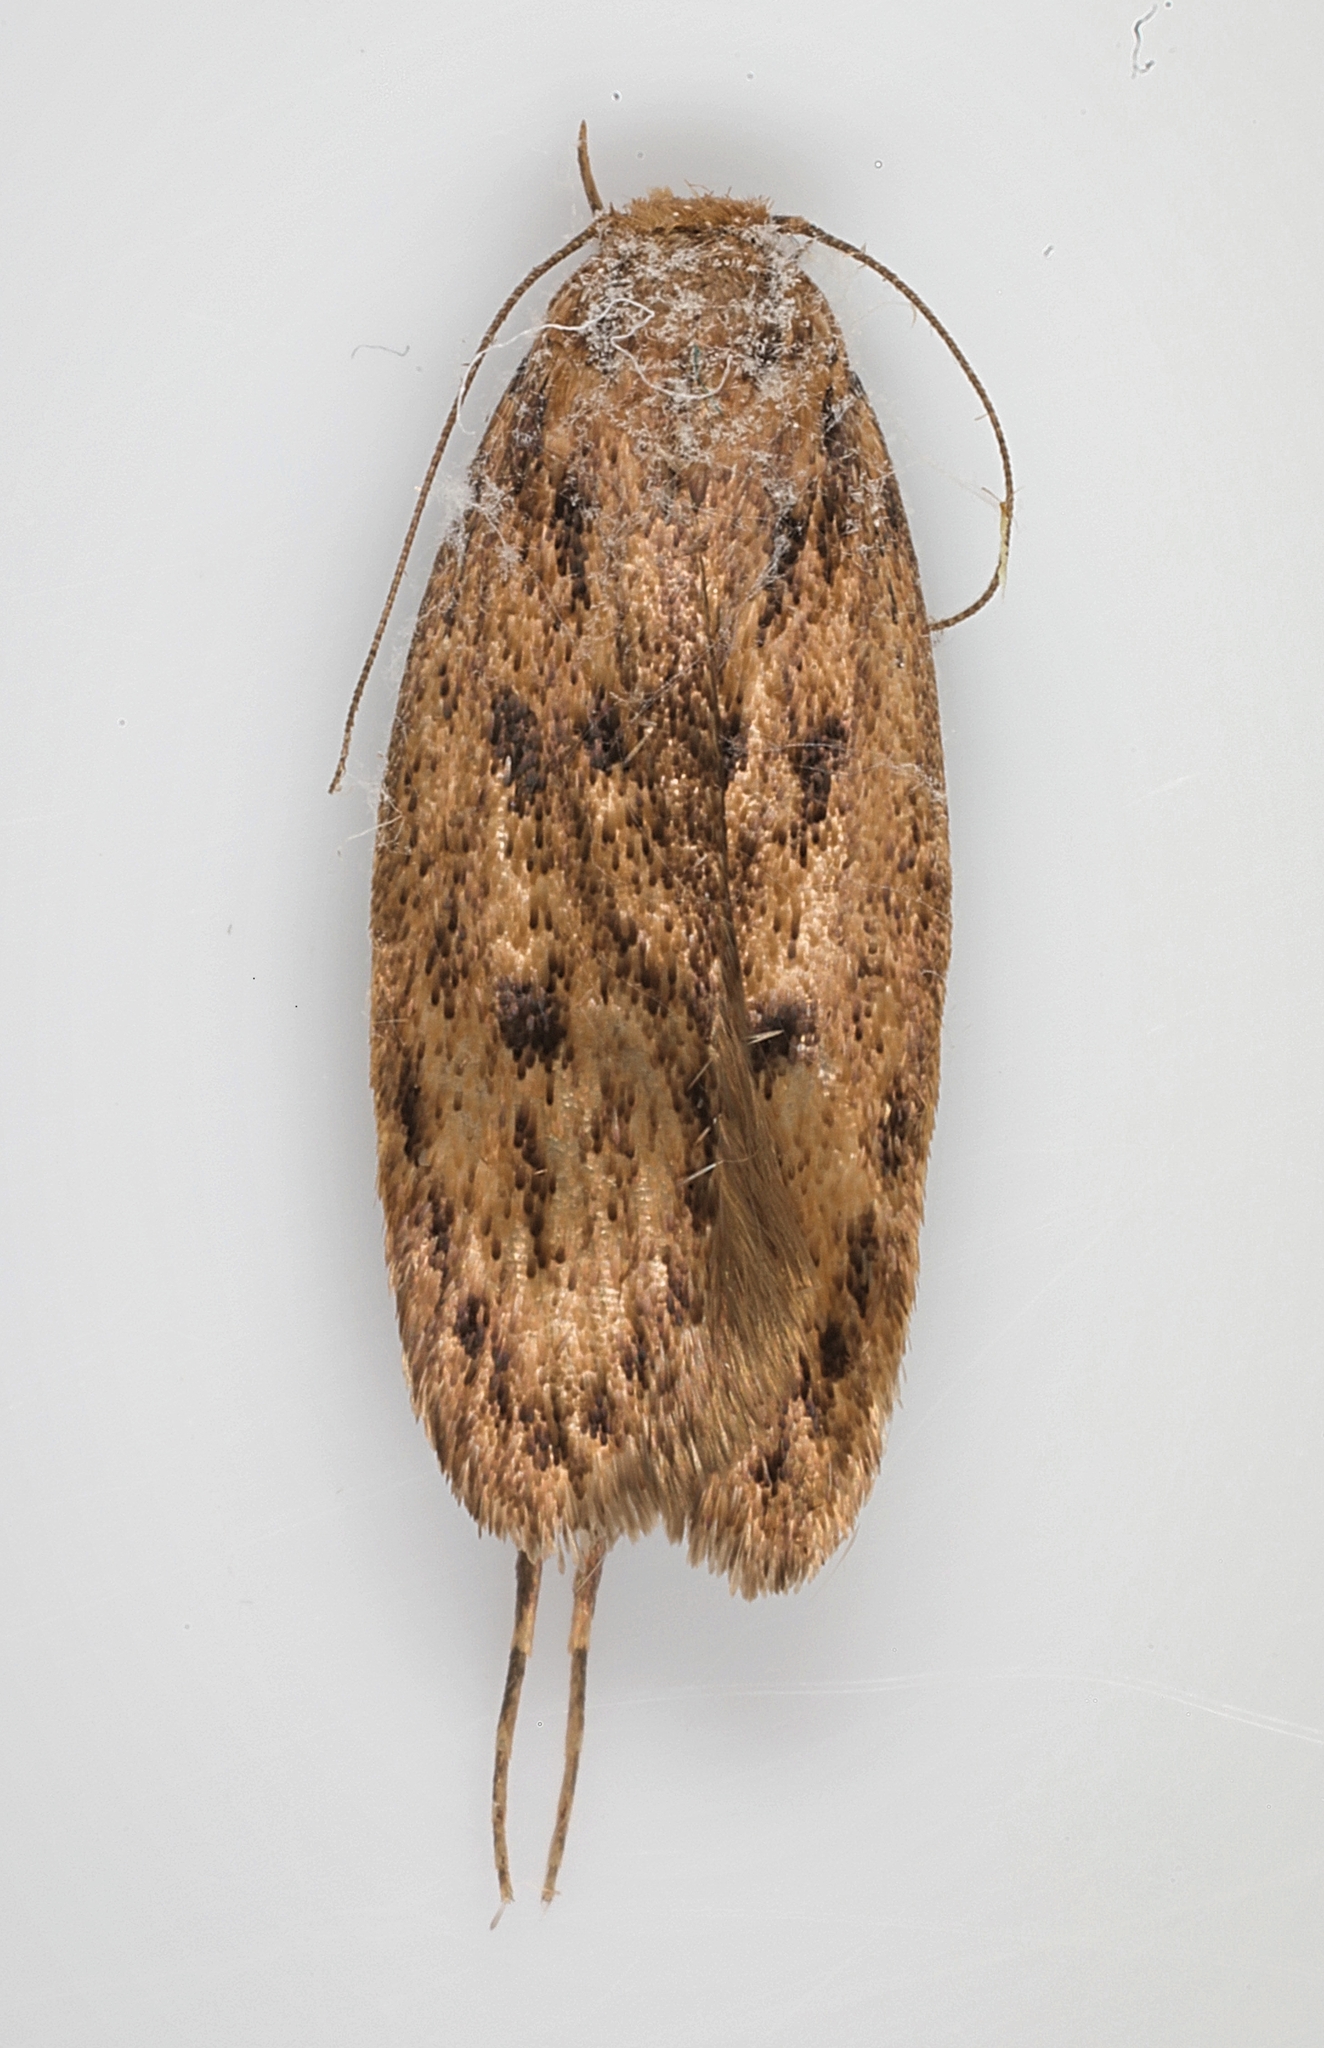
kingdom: Animalia
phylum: Arthropoda
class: Insecta
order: Lepidoptera
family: Oecophoridae
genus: Hofmannophila
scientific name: Hofmannophila pseudospretella
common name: Brown house moth
